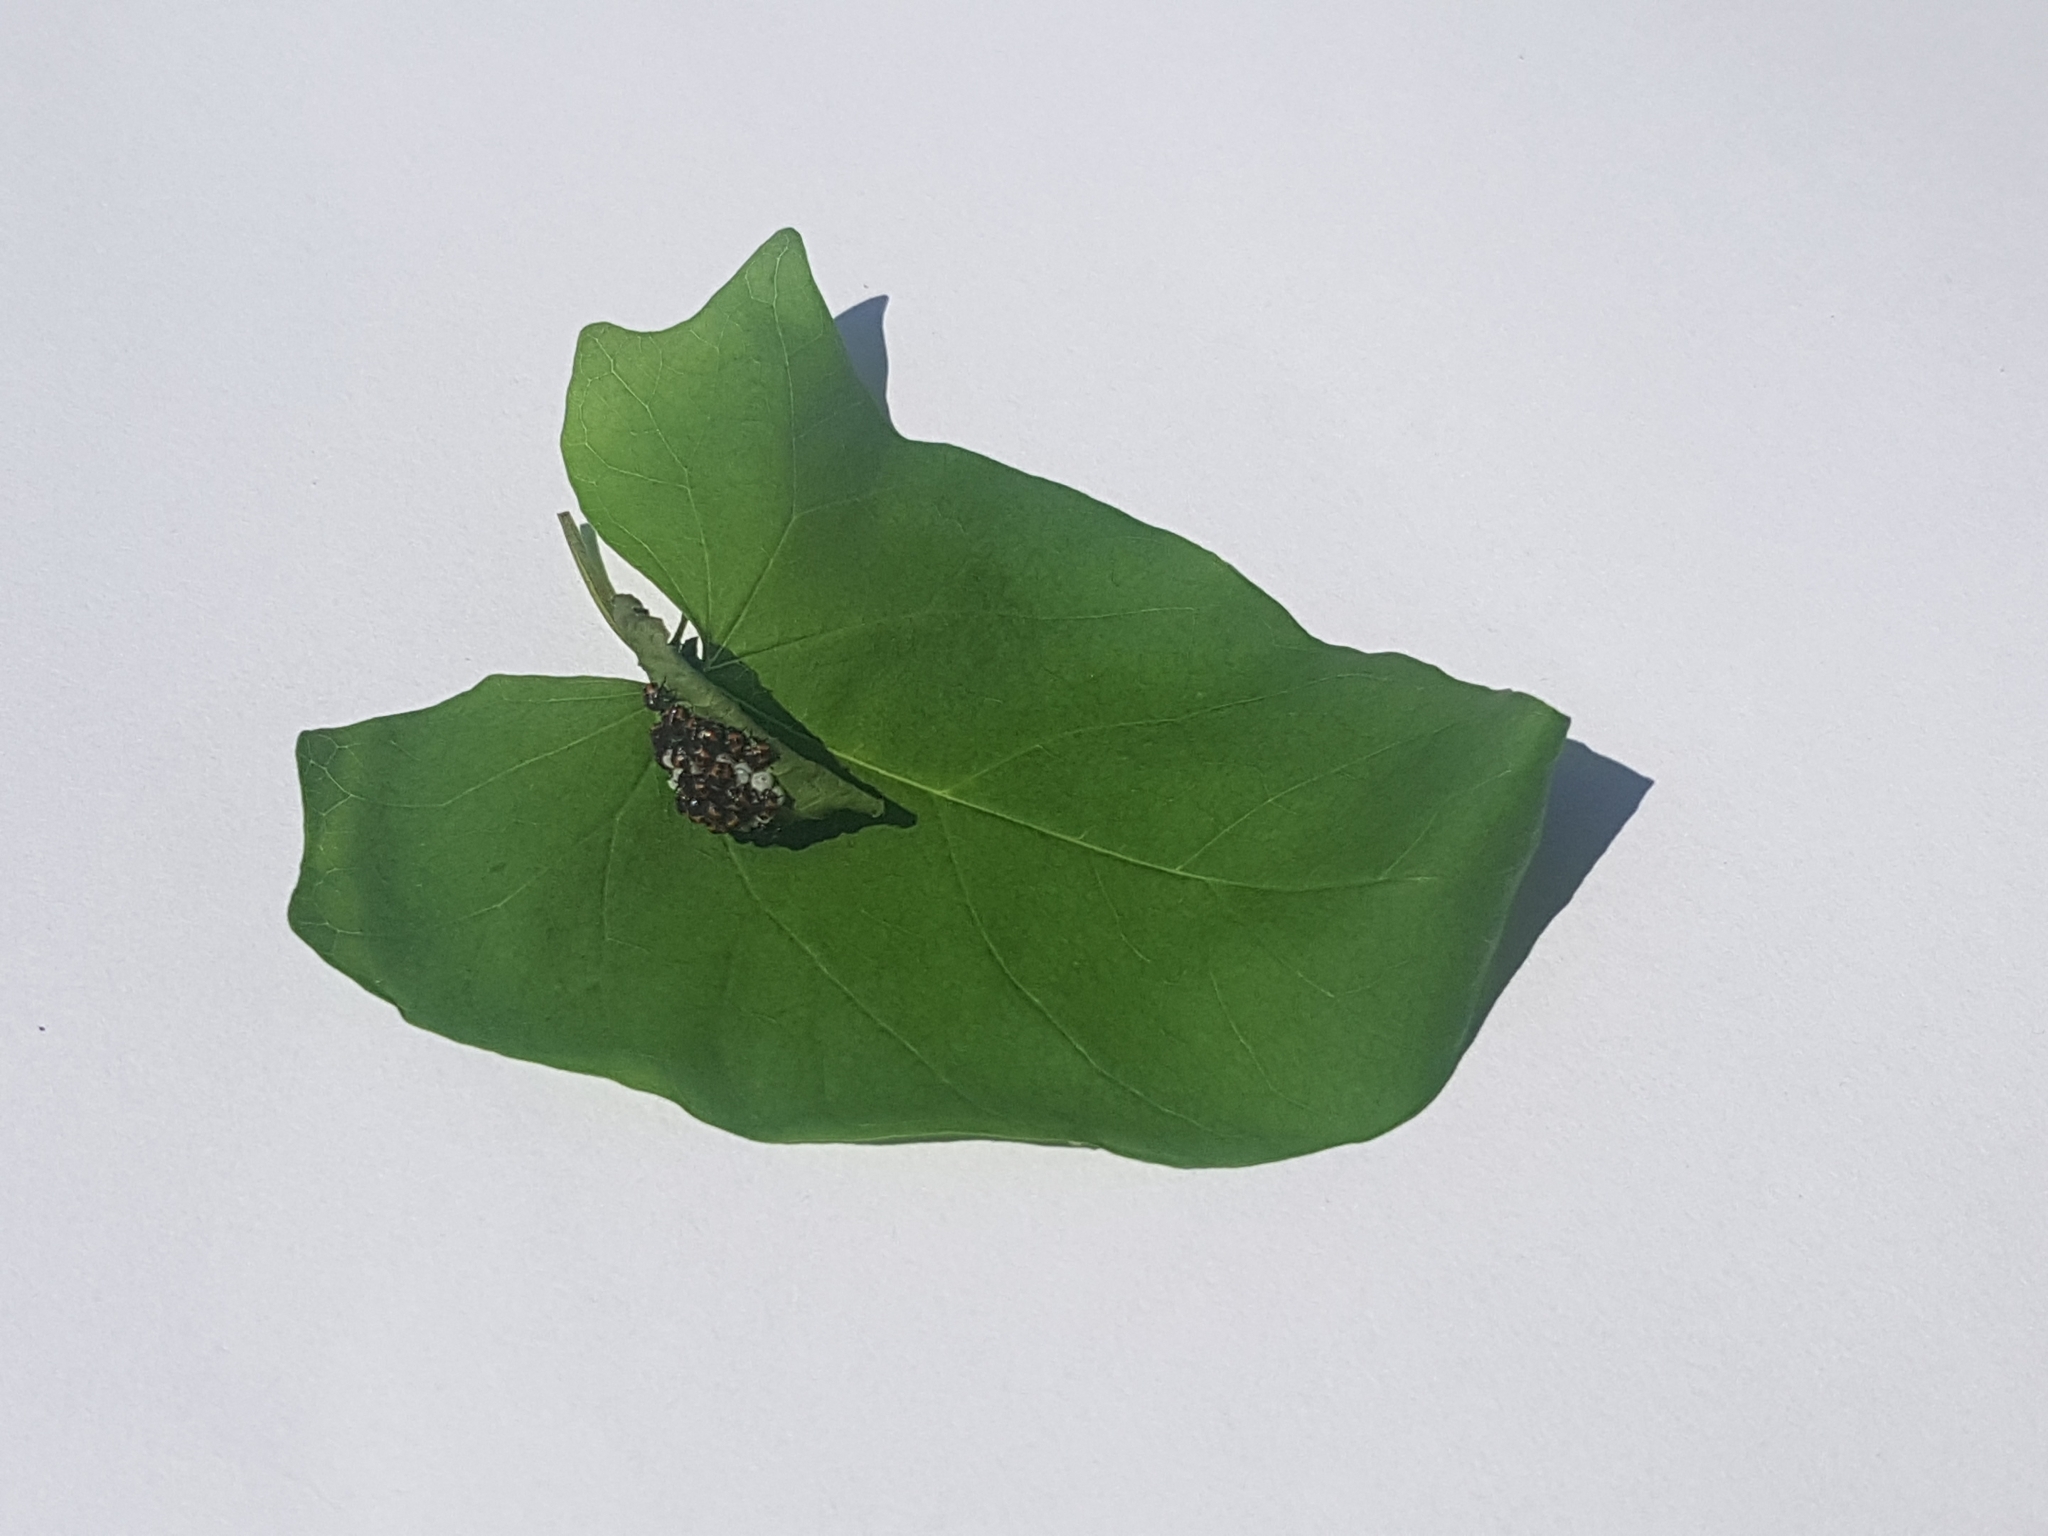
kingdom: Animalia
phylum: Arthropoda
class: Insecta
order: Hemiptera
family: Pentatomidae
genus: Halyomorpha
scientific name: Halyomorpha halys
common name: Brown marmorated stink bug
